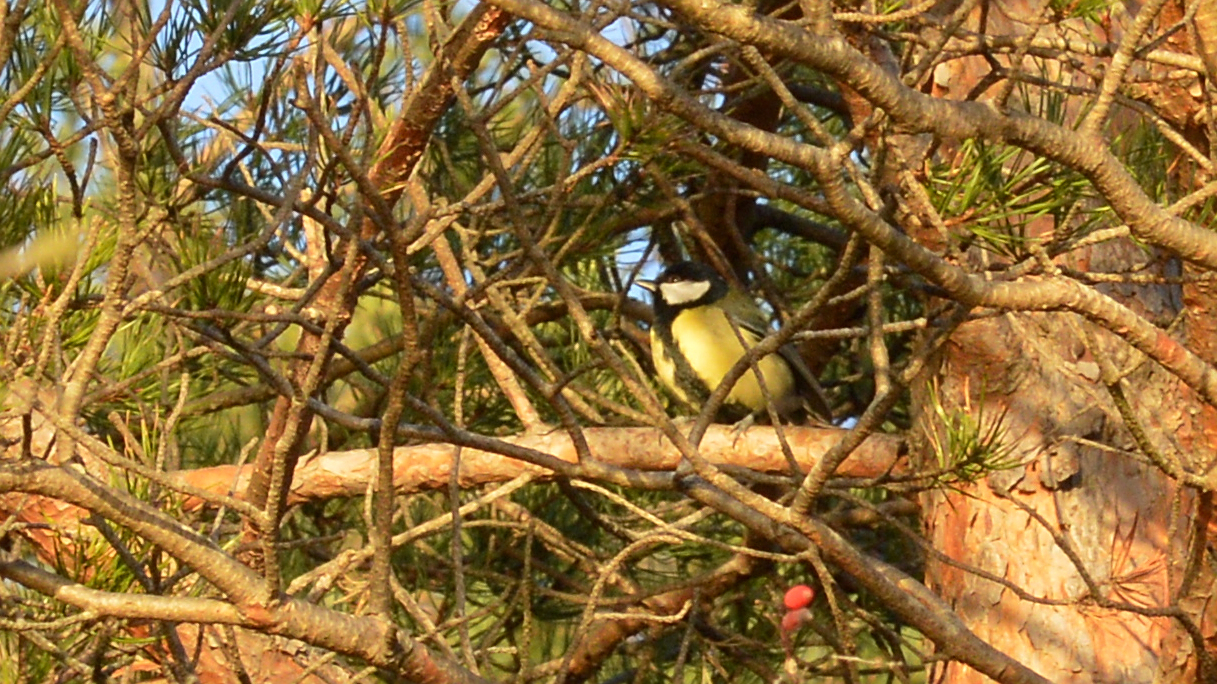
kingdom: Animalia
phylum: Chordata
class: Aves
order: Passeriformes
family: Paridae
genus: Parus
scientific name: Parus major
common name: Great tit
